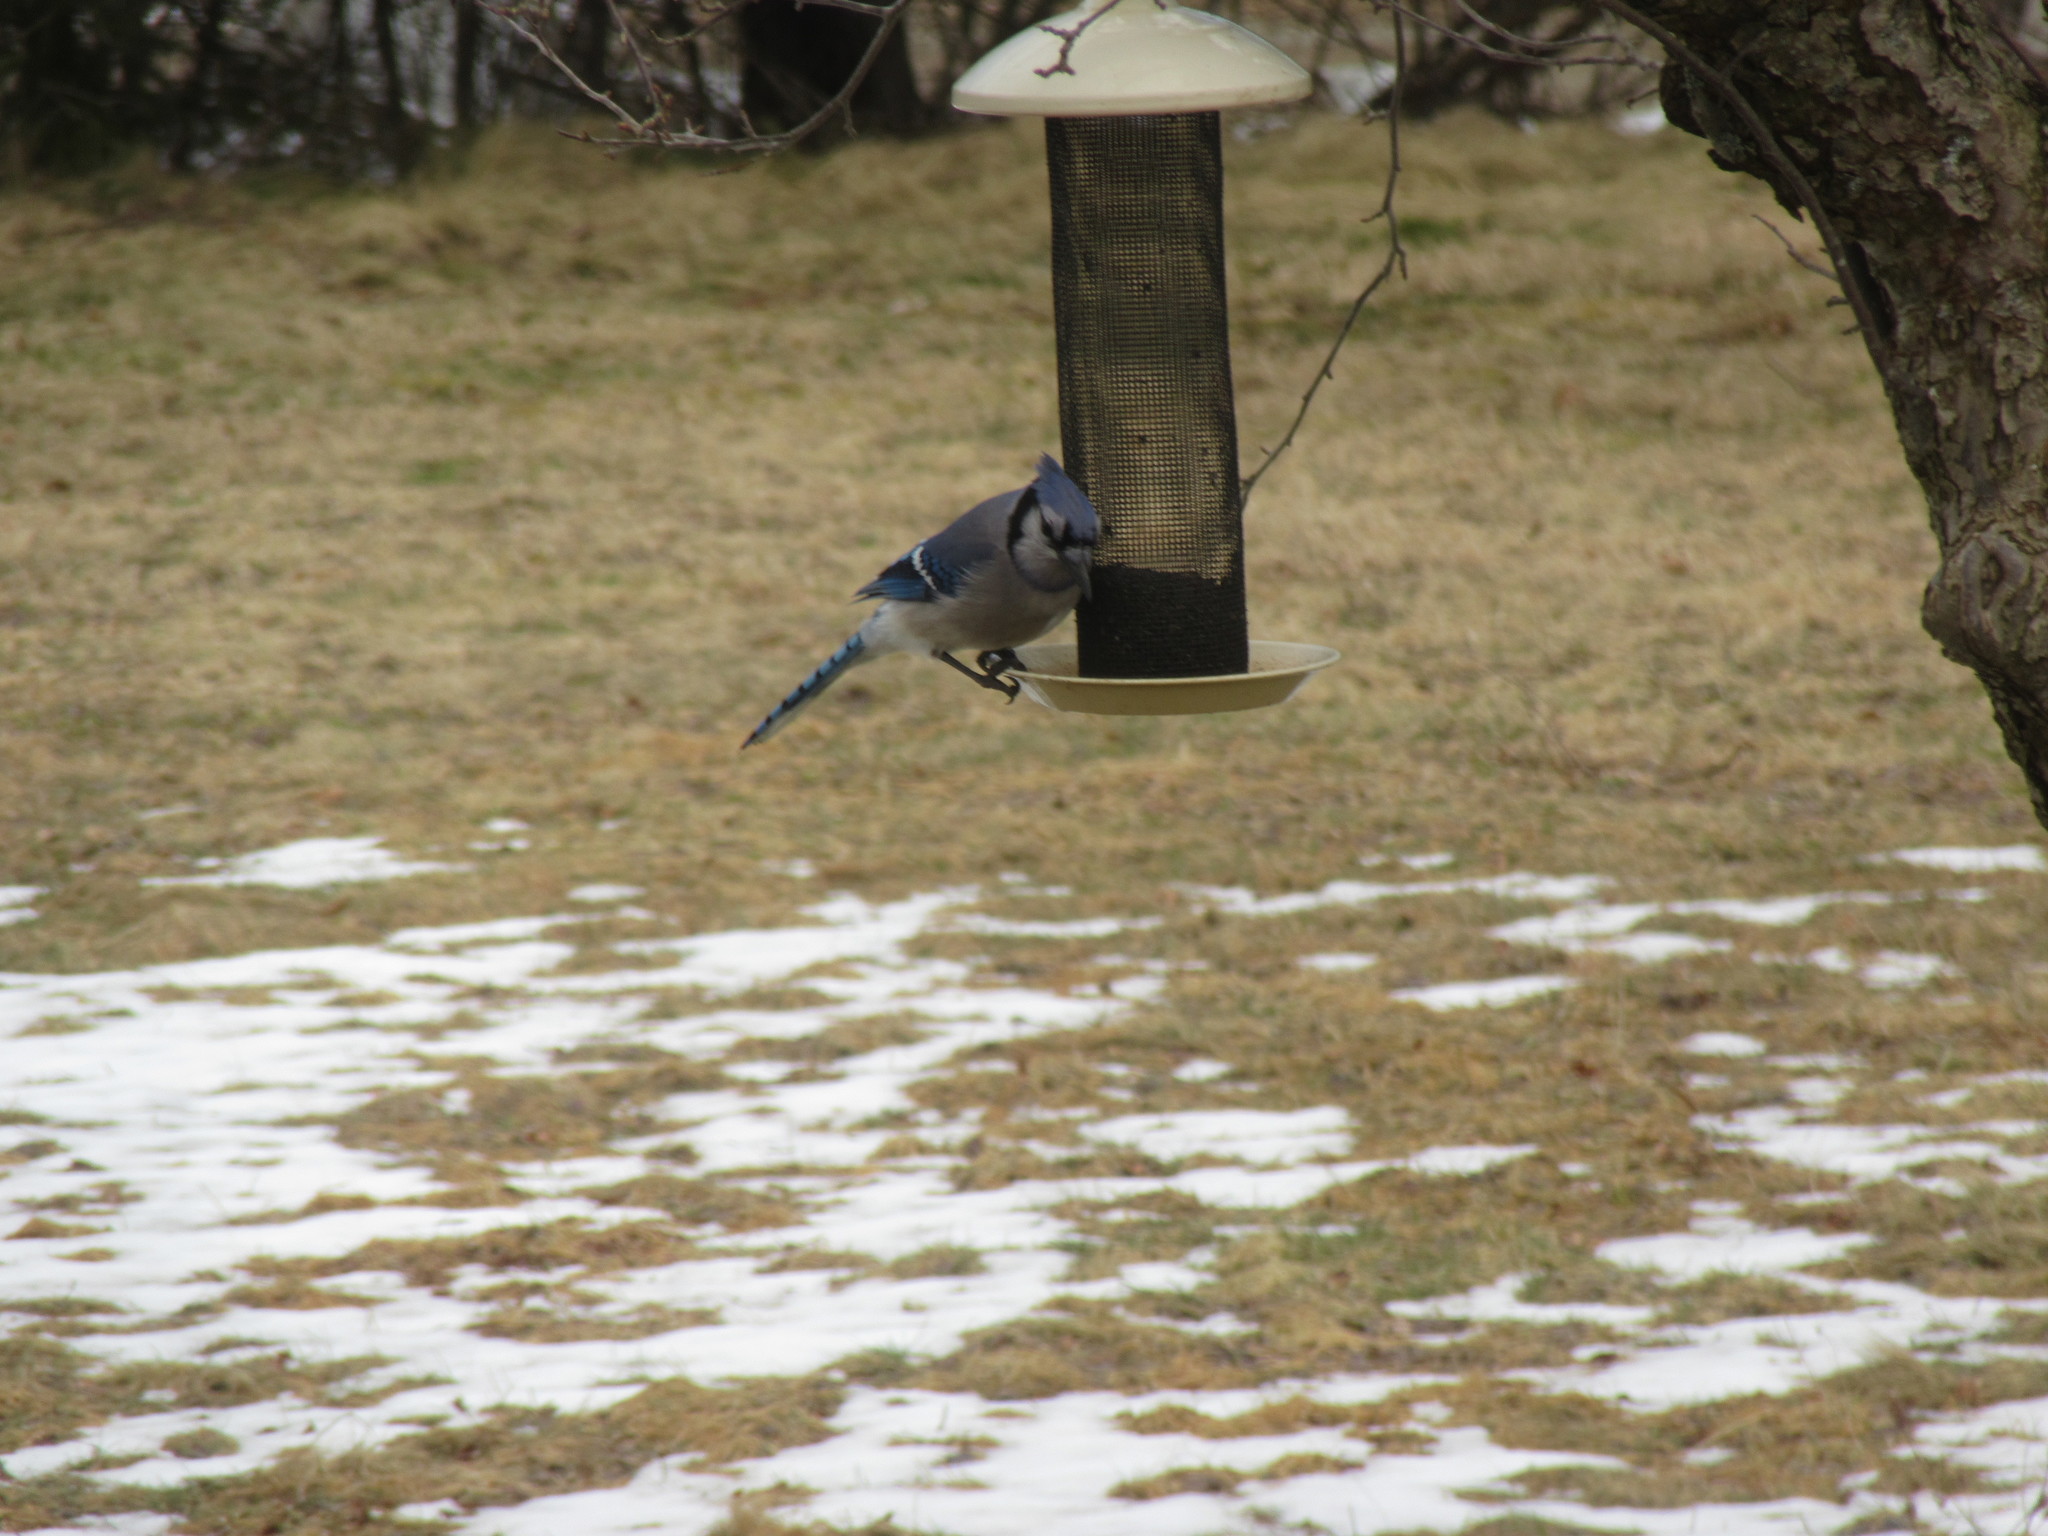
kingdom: Animalia
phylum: Chordata
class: Aves
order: Passeriformes
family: Corvidae
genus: Cyanocitta
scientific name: Cyanocitta cristata
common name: Blue jay
